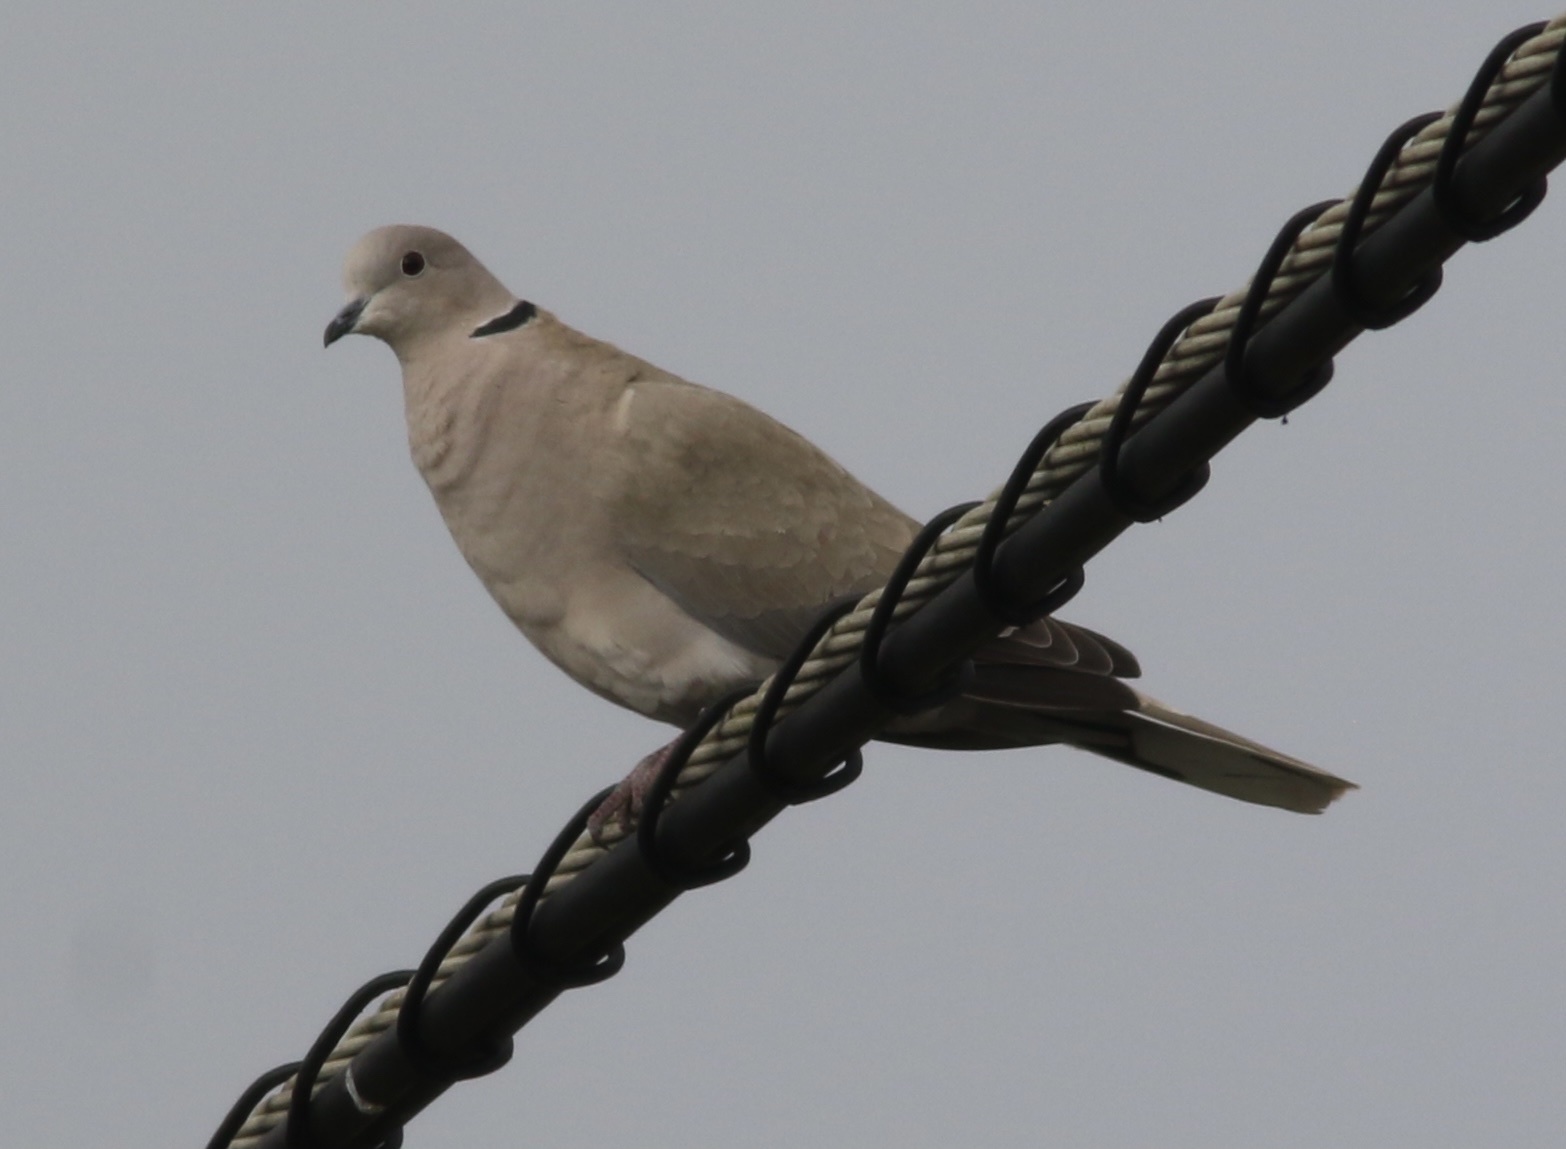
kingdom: Animalia
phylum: Chordata
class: Aves
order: Columbiformes
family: Columbidae
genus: Streptopelia
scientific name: Streptopelia decaocto
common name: Eurasian collared dove
